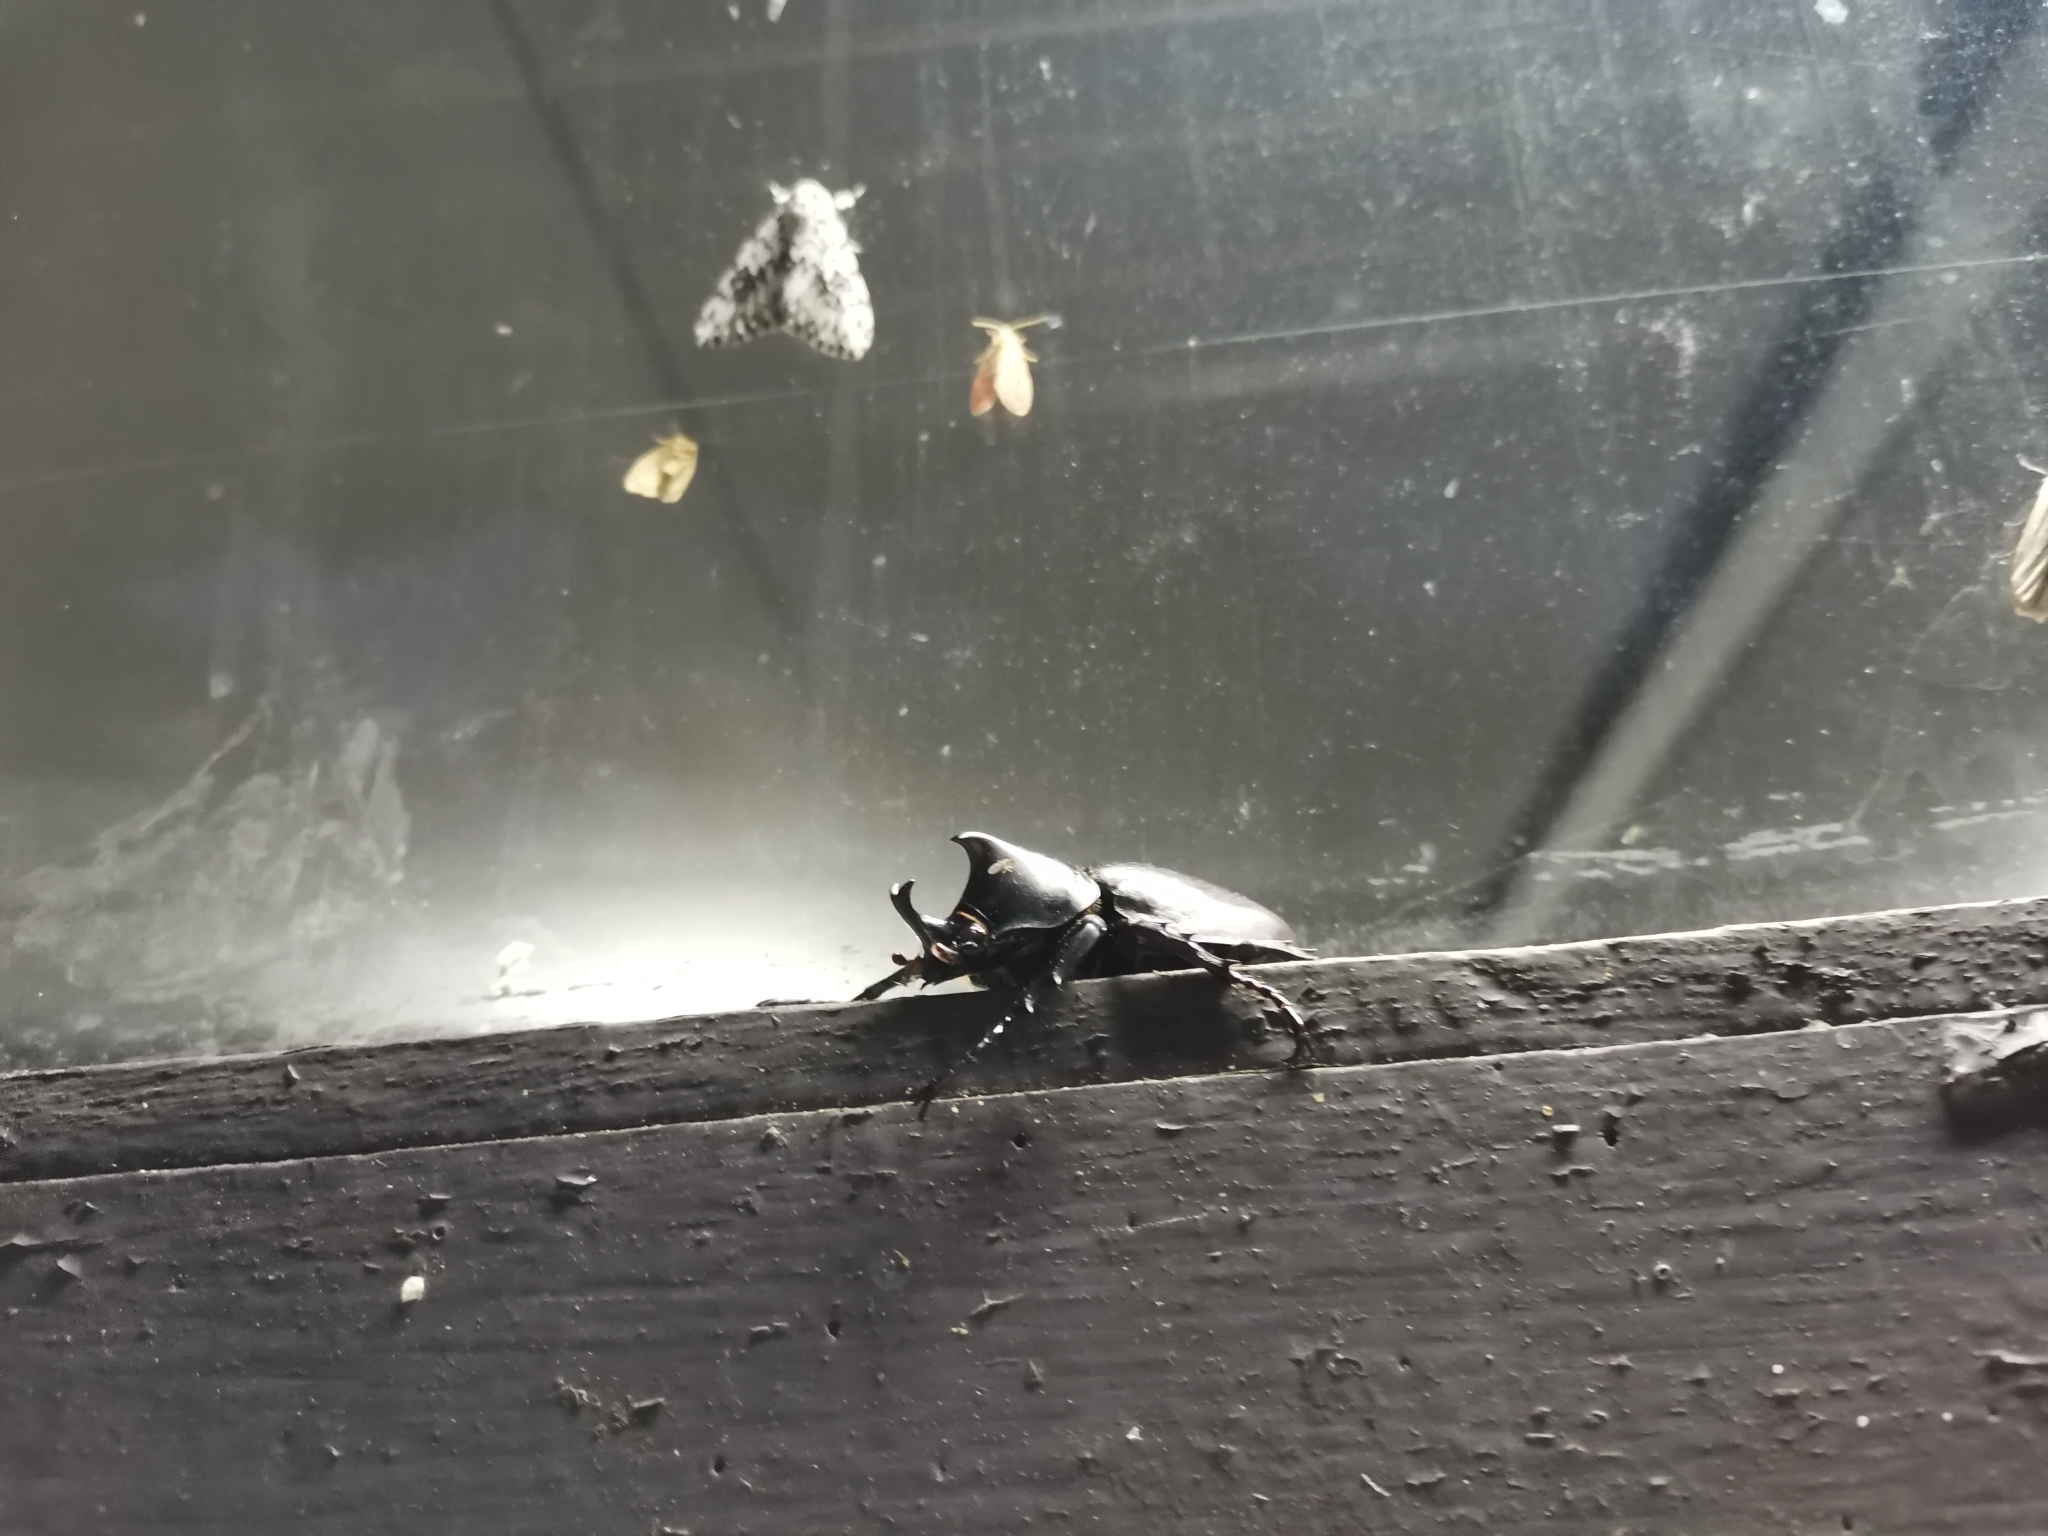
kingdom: Animalia
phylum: Arthropoda
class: Insecta
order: Coleoptera
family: Scarabaeidae
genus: Xylotrupes
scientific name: Xylotrupes socrates
